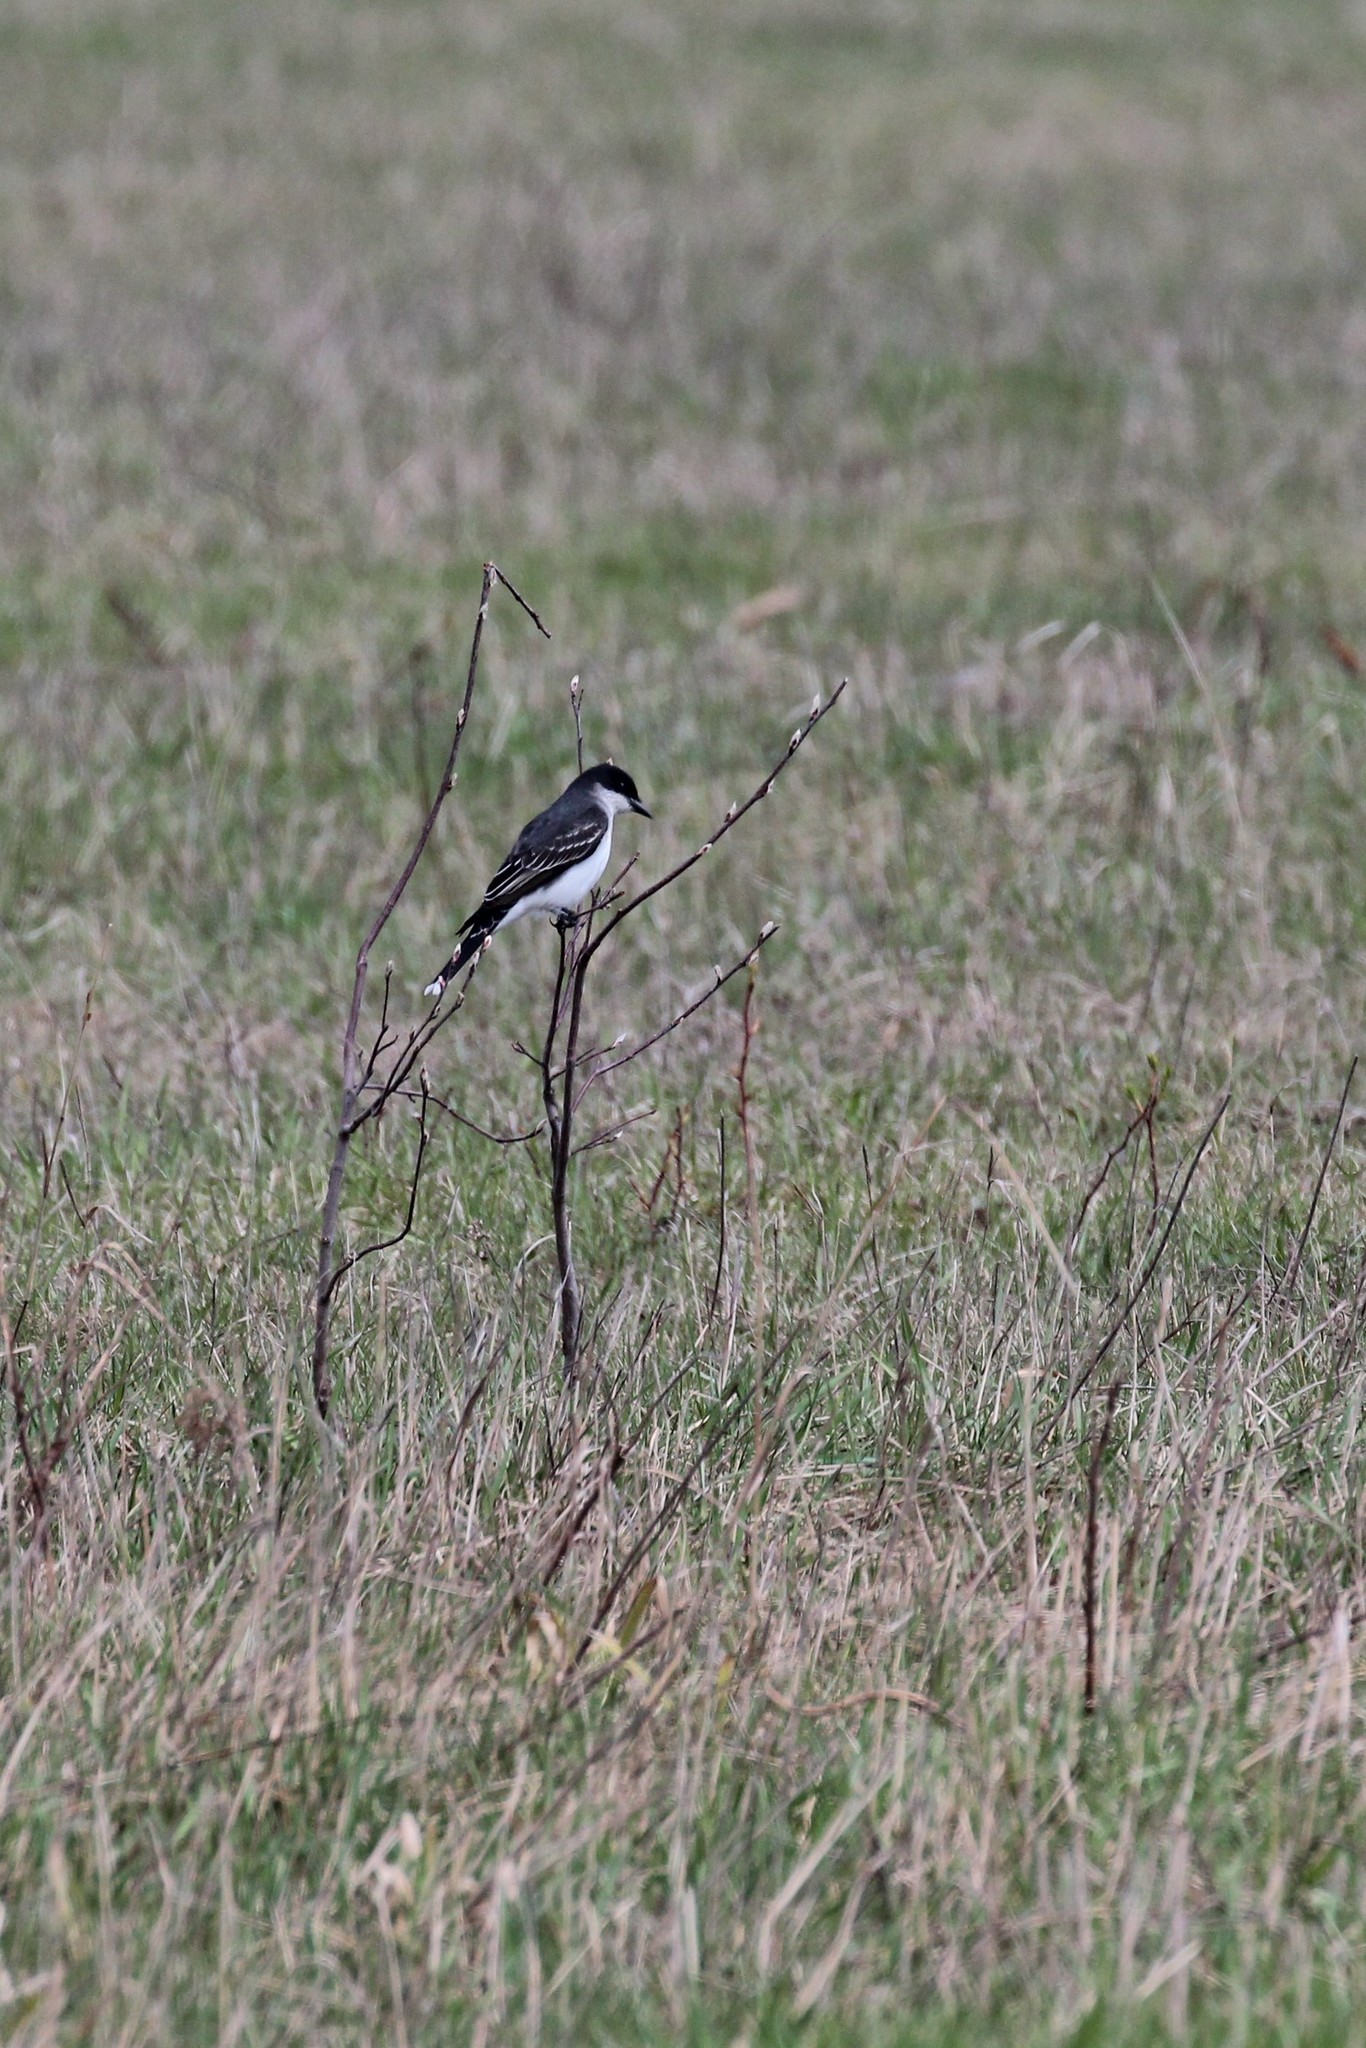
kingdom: Animalia
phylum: Chordata
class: Aves
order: Passeriformes
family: Tyrannidae
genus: Tyrannus
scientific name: Tyrannus tyrannus
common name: Eastern kingbird
